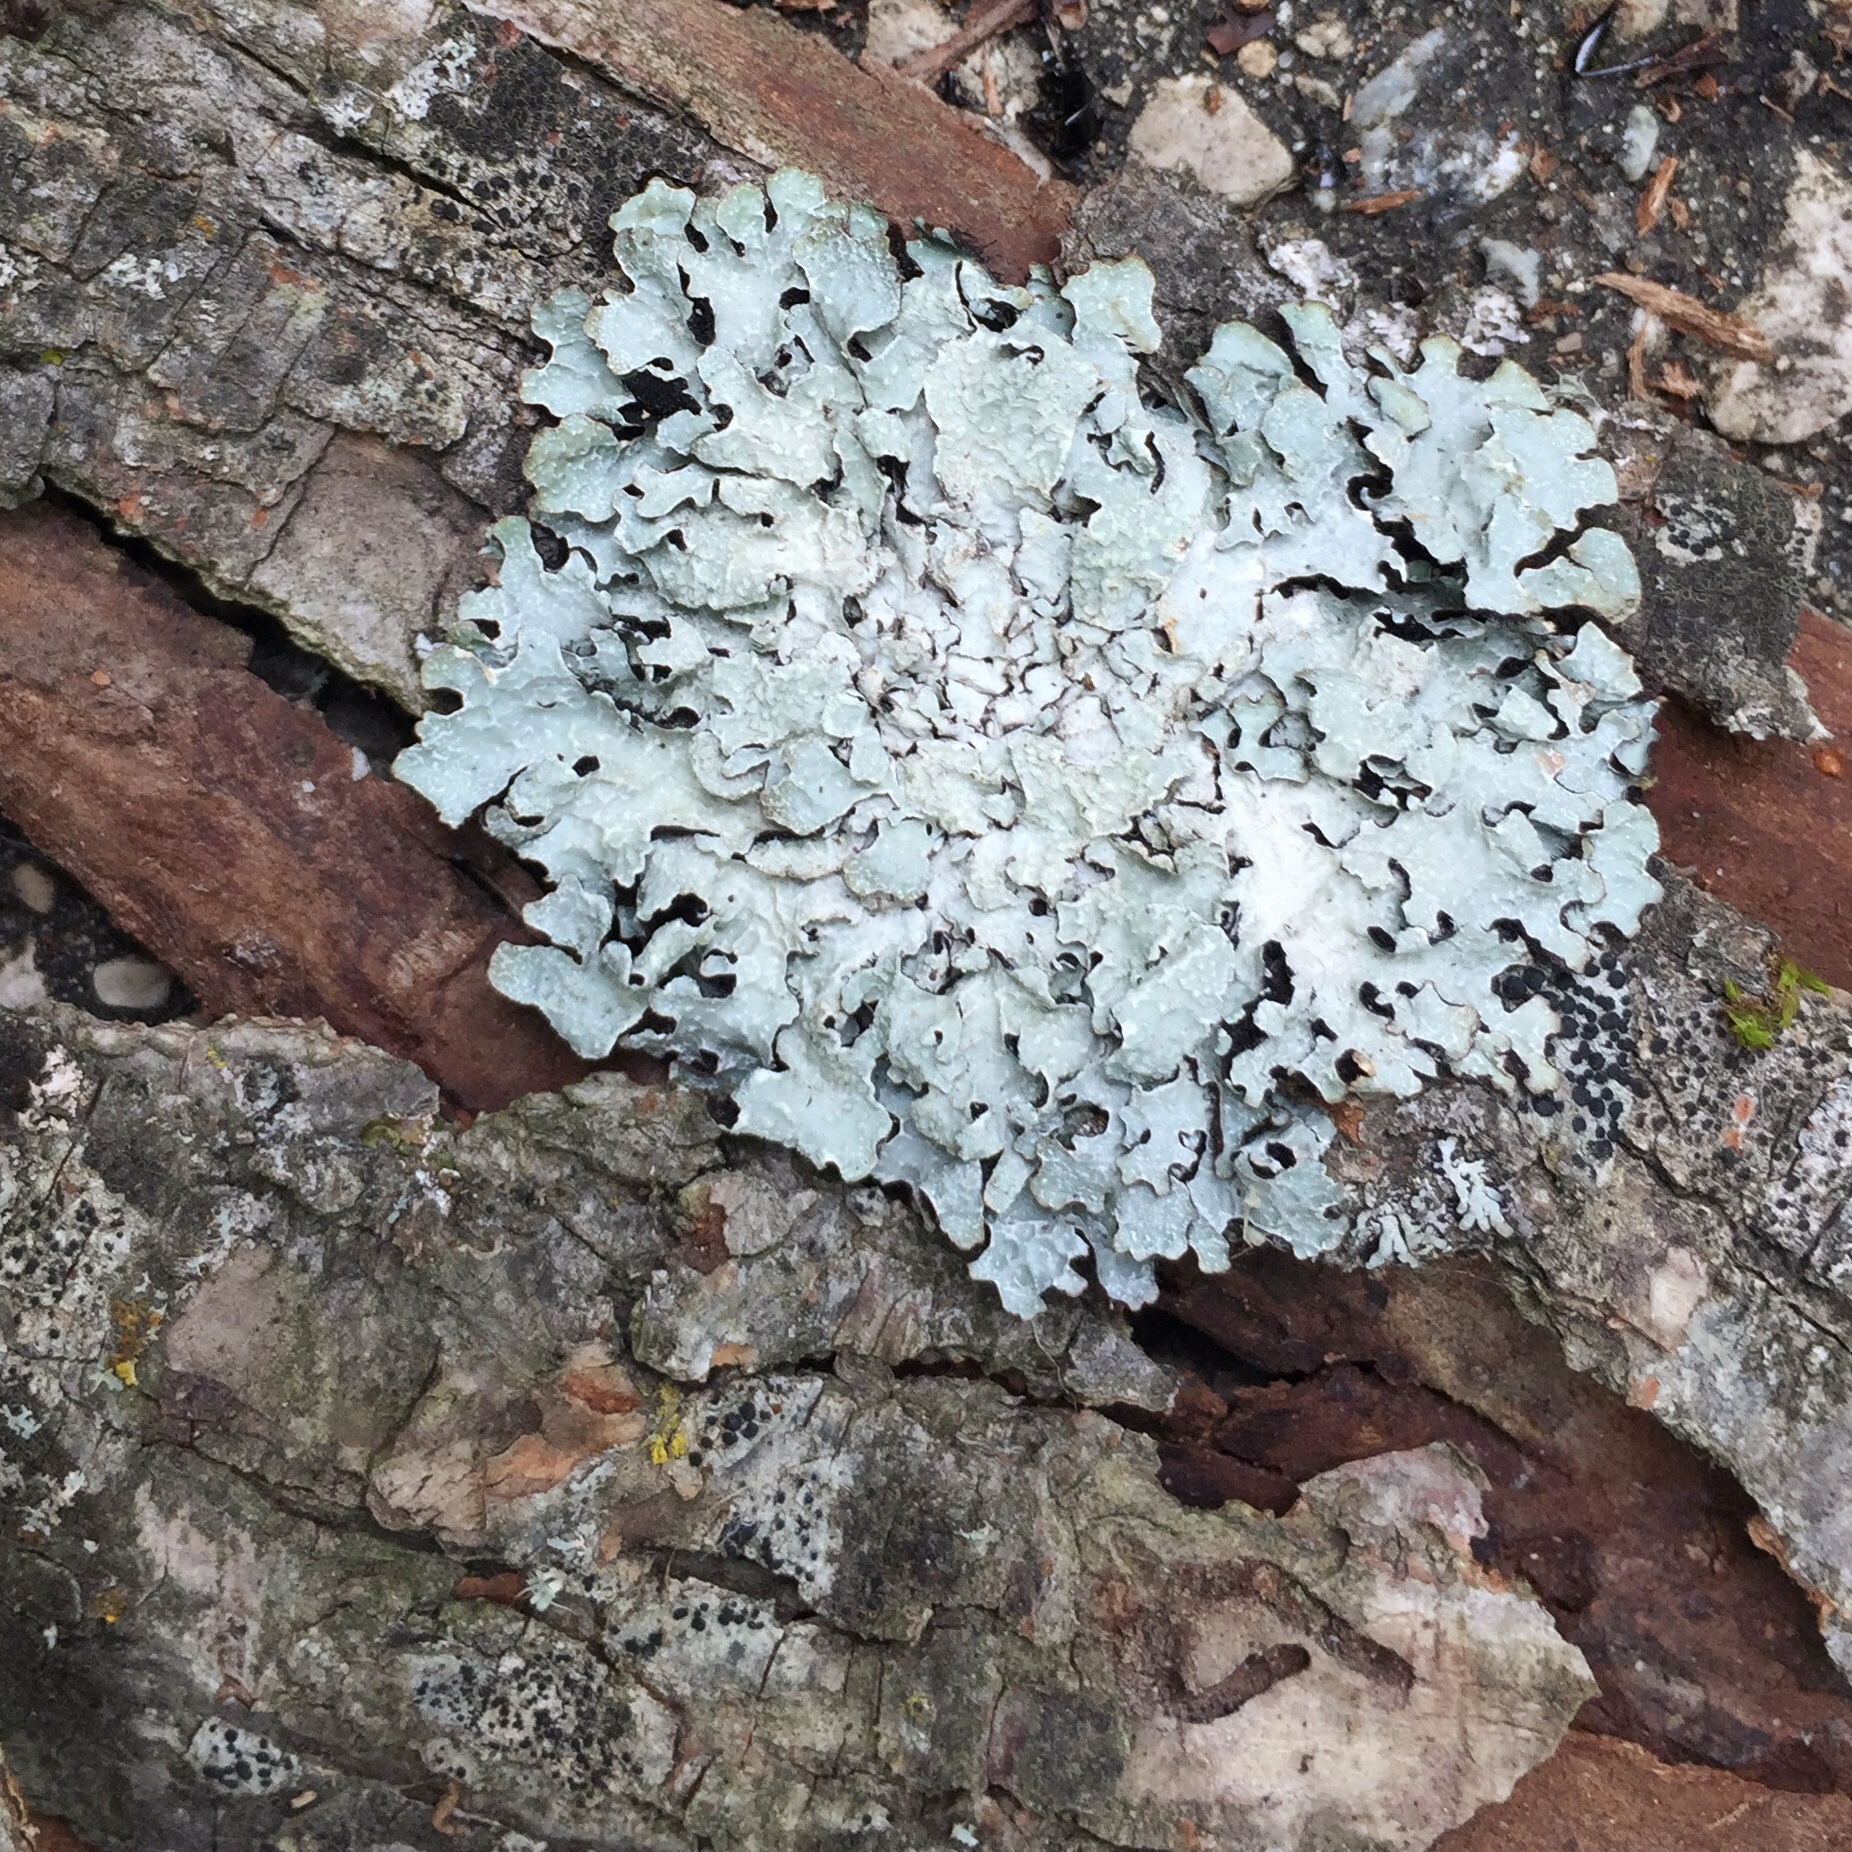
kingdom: Fungi
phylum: Ascomycota
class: Lecanoromycetes
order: Lecanorales
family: Parmeliaceae
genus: Parmelia
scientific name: Parmelia sulcata
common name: Netted shield lichen
